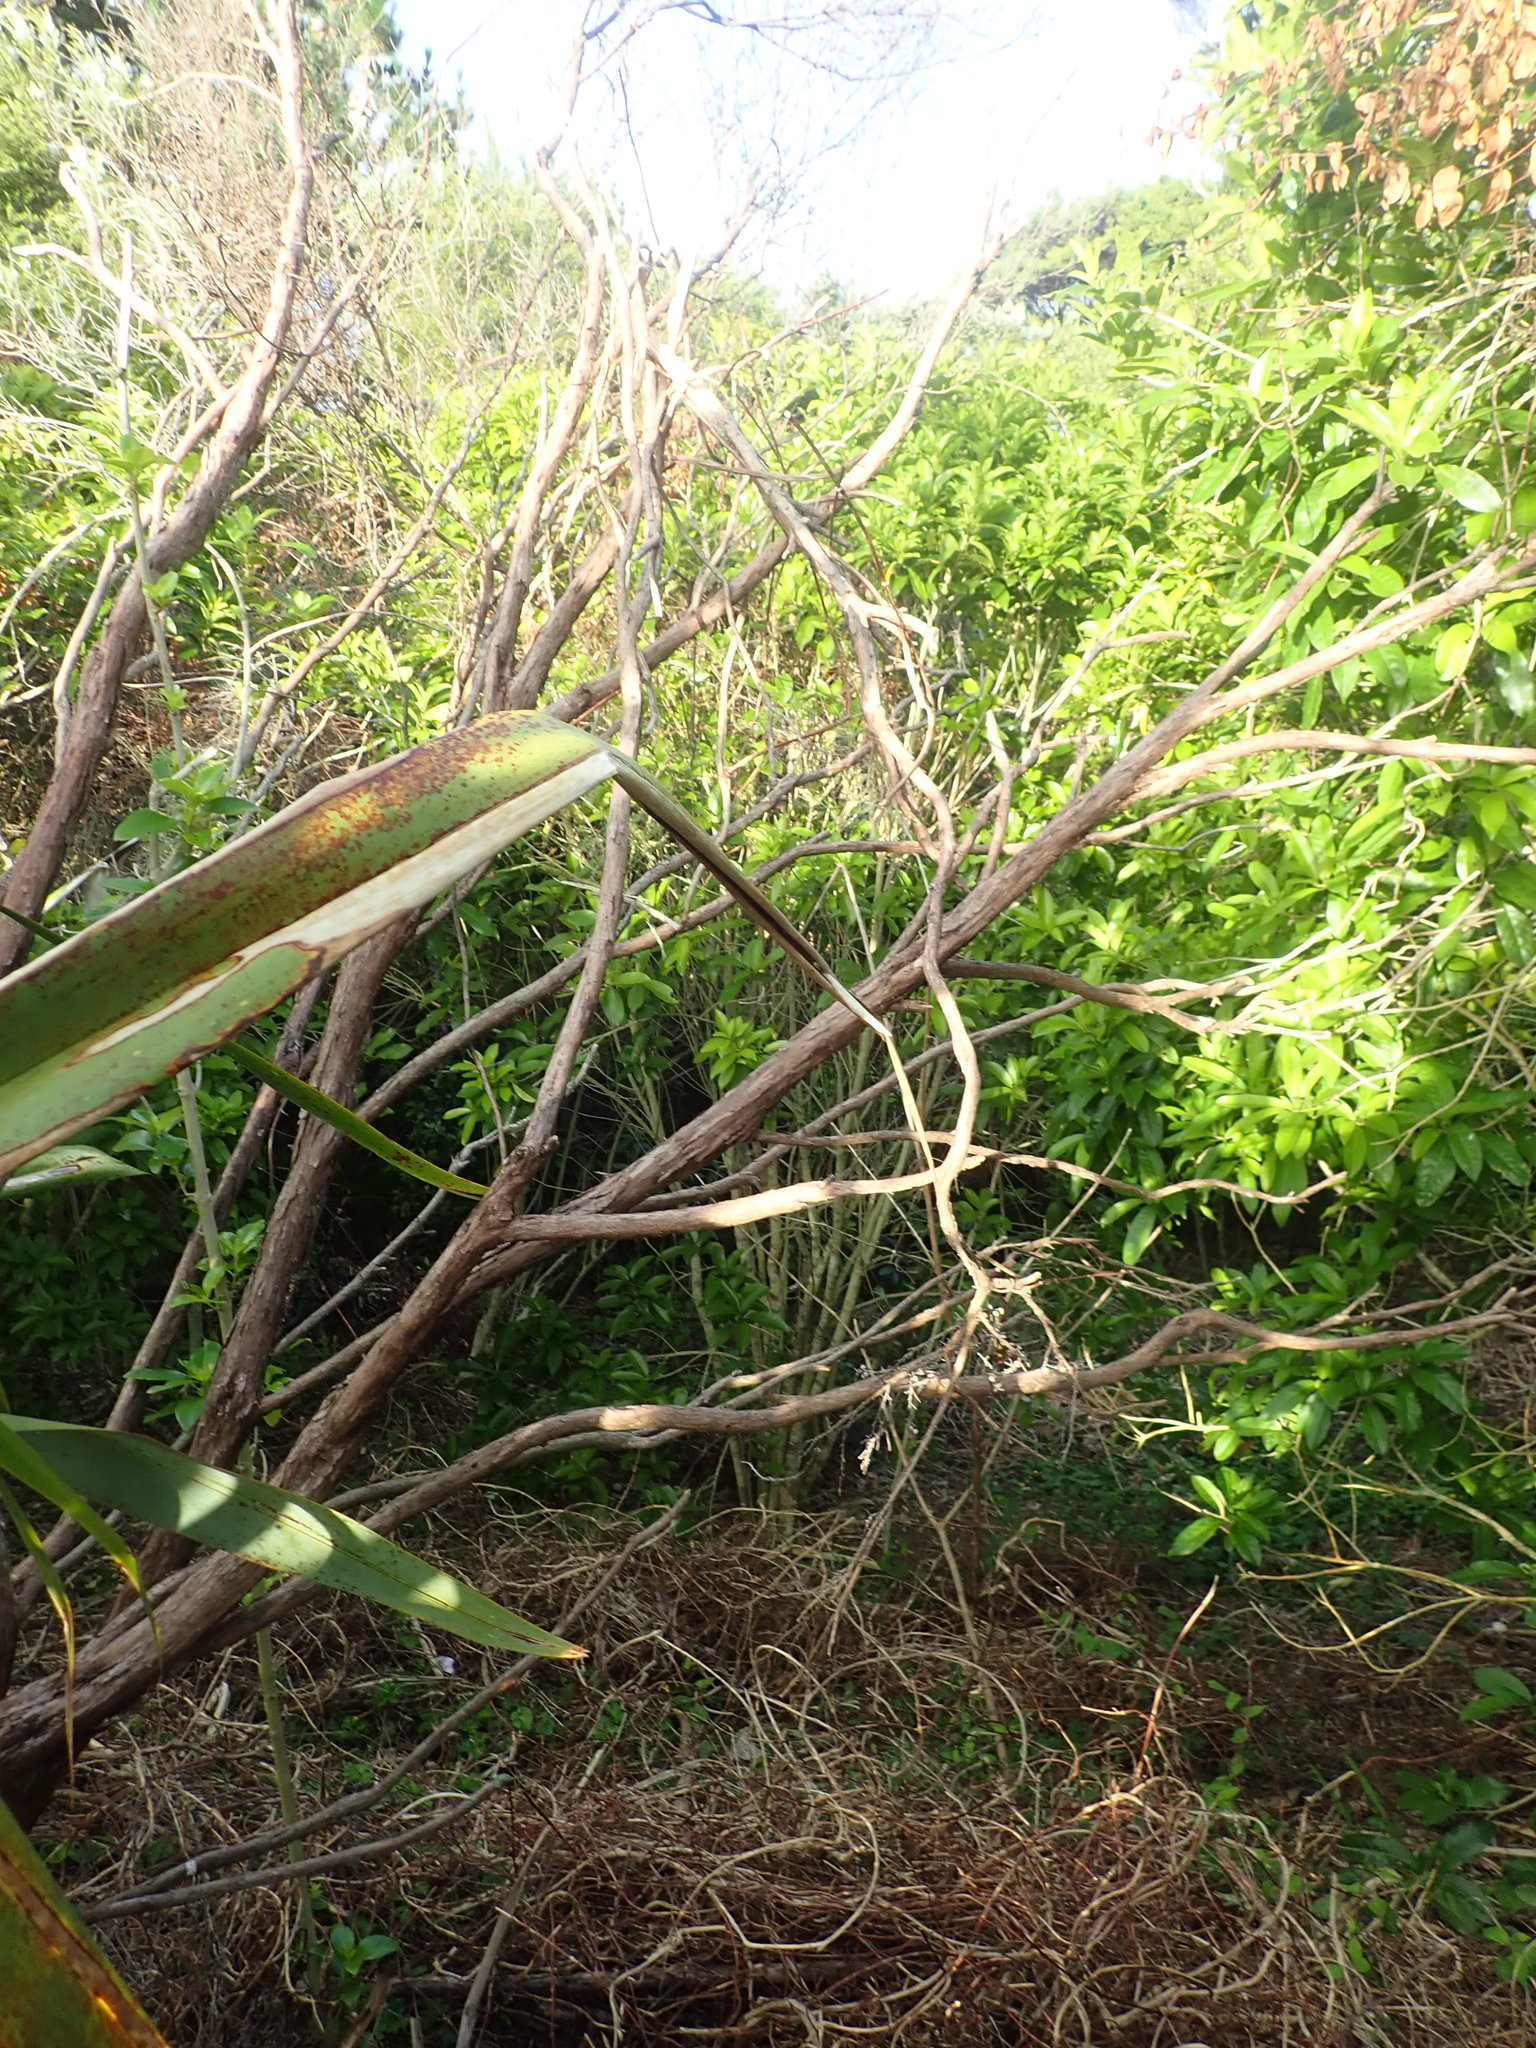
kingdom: Plantae
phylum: Tracheophyta
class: Magnoliopsida
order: Malpighiales
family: Violaceae
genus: Melicytus
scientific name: Melicytus ramiflorus
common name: Mahoe
